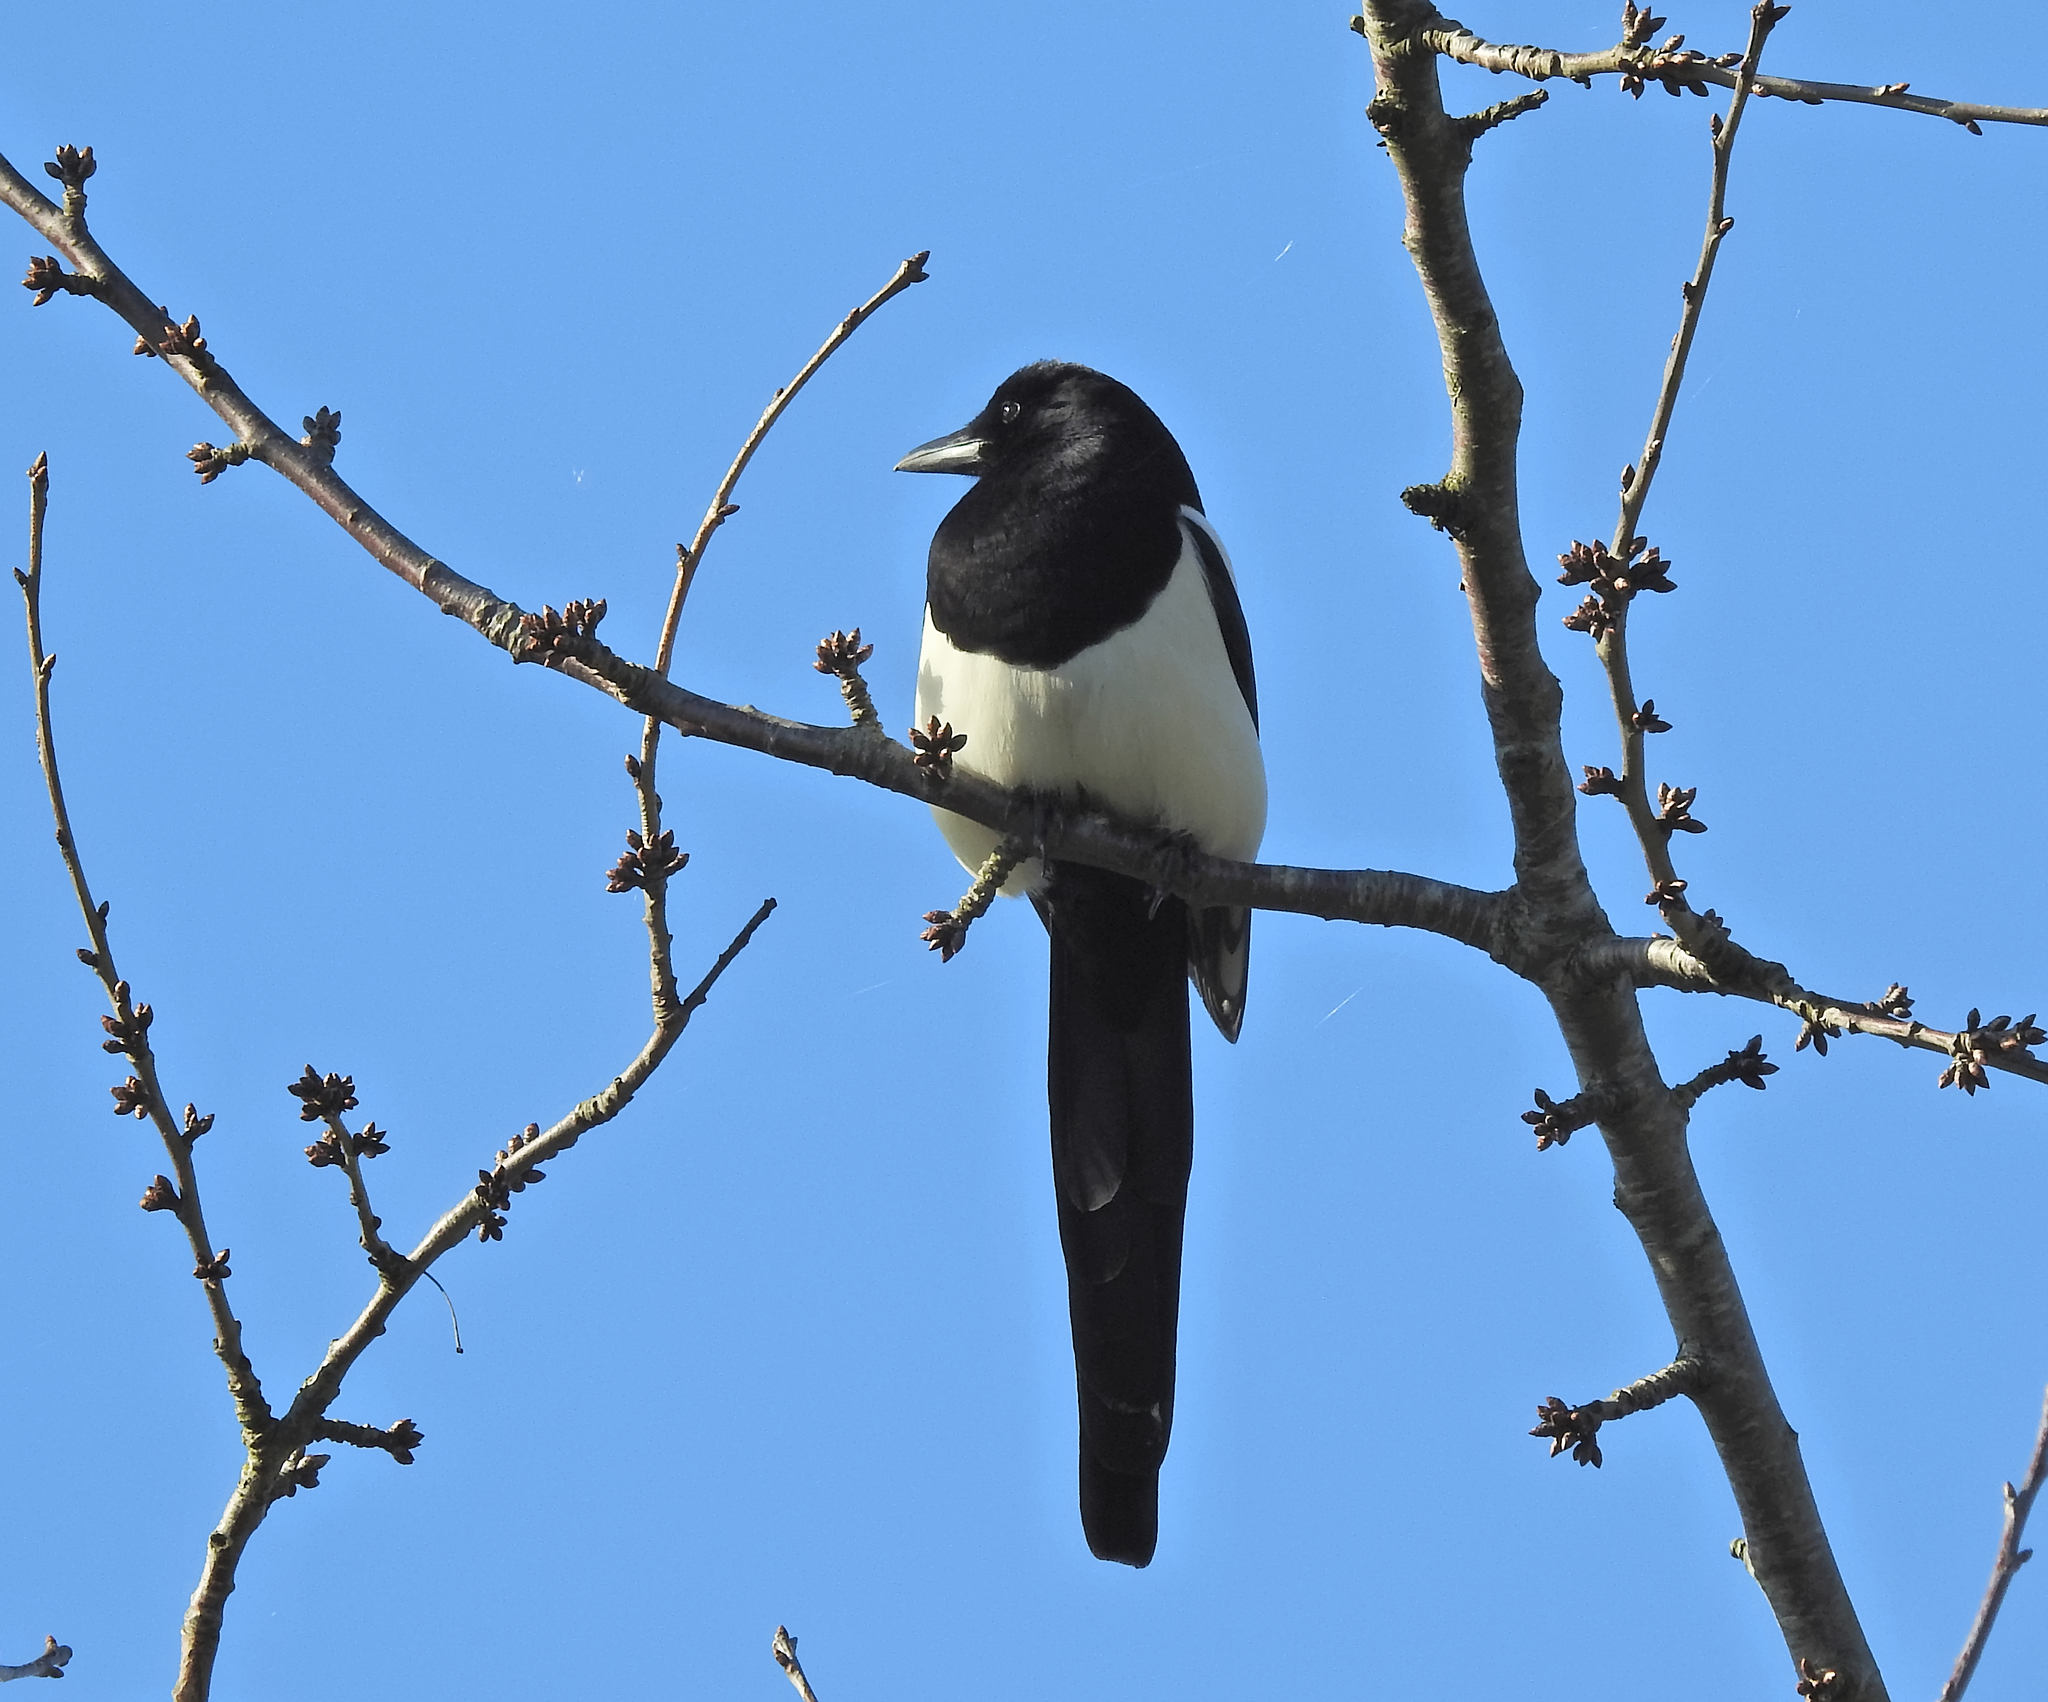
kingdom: Animalia
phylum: Chordata
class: Aves
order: Passeriformes
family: Corvidae
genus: Pica
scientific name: Pica pica
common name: Eurasian magpie
